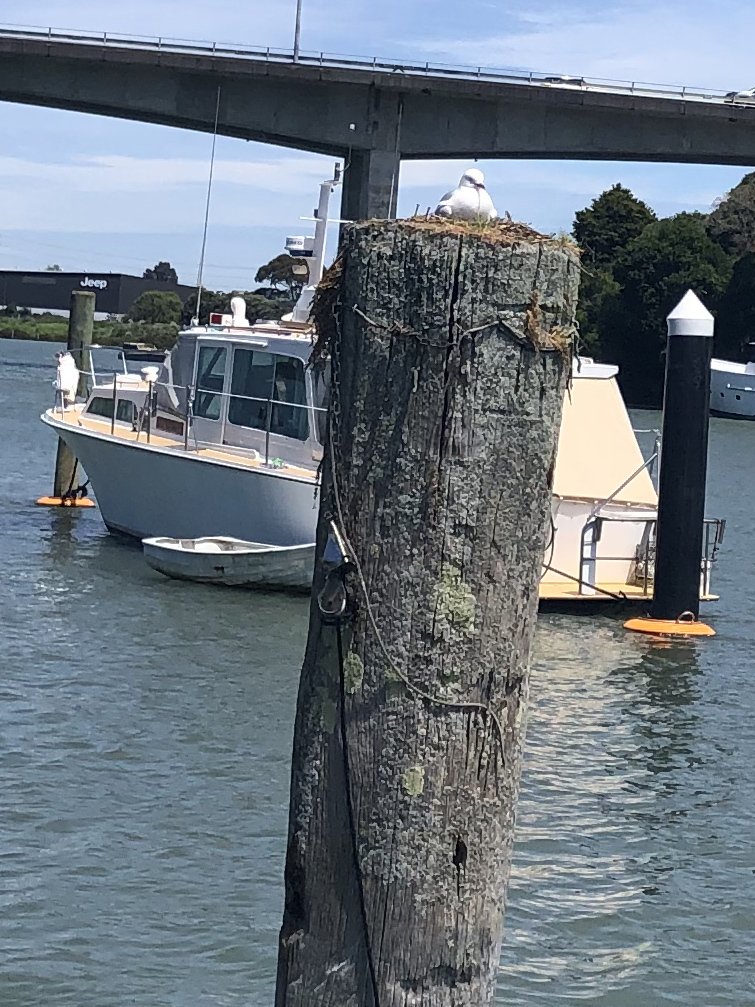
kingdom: Animalia
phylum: Chordata
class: Aves
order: Charadriiformes
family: Laridae
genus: Chroicocephalus
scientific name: Chroicocephalus novaehollandiae
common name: Silver gull
